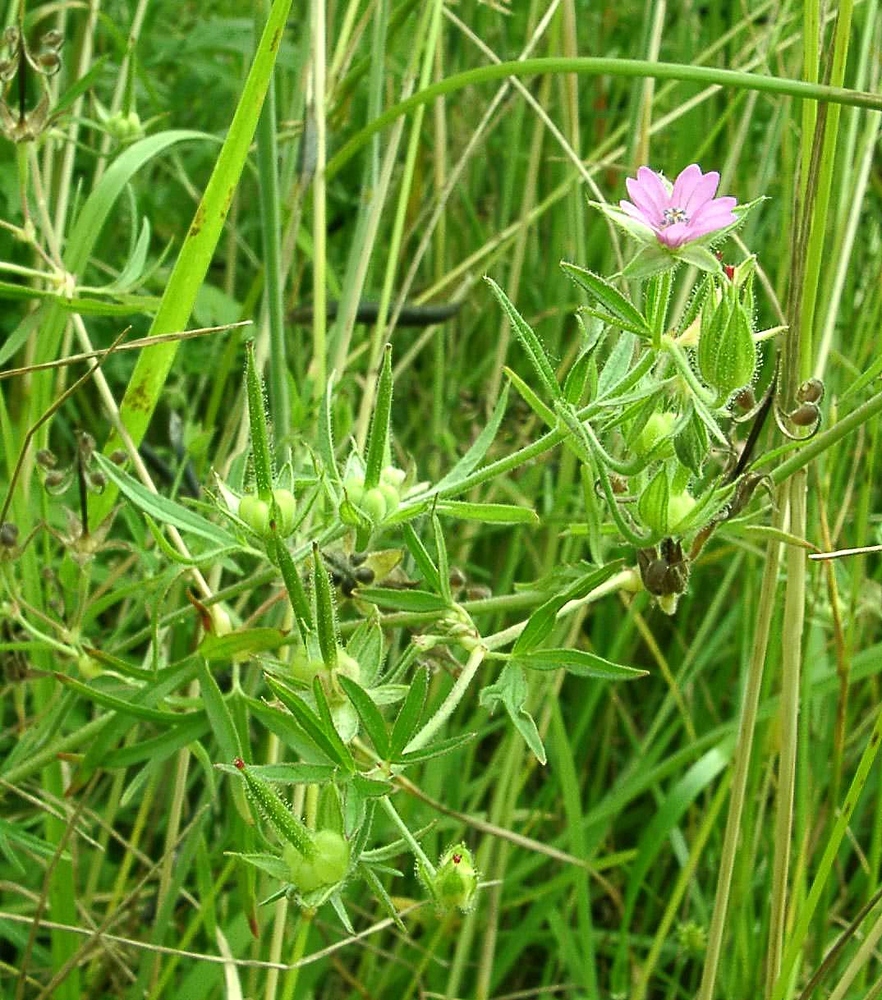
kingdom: Plantae
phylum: Tracheophyta
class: Magnoliopsida
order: Geraniales
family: Geraniaceae
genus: Geranium
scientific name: Geranium dissectum
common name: Cut-leaved crane's-bill
